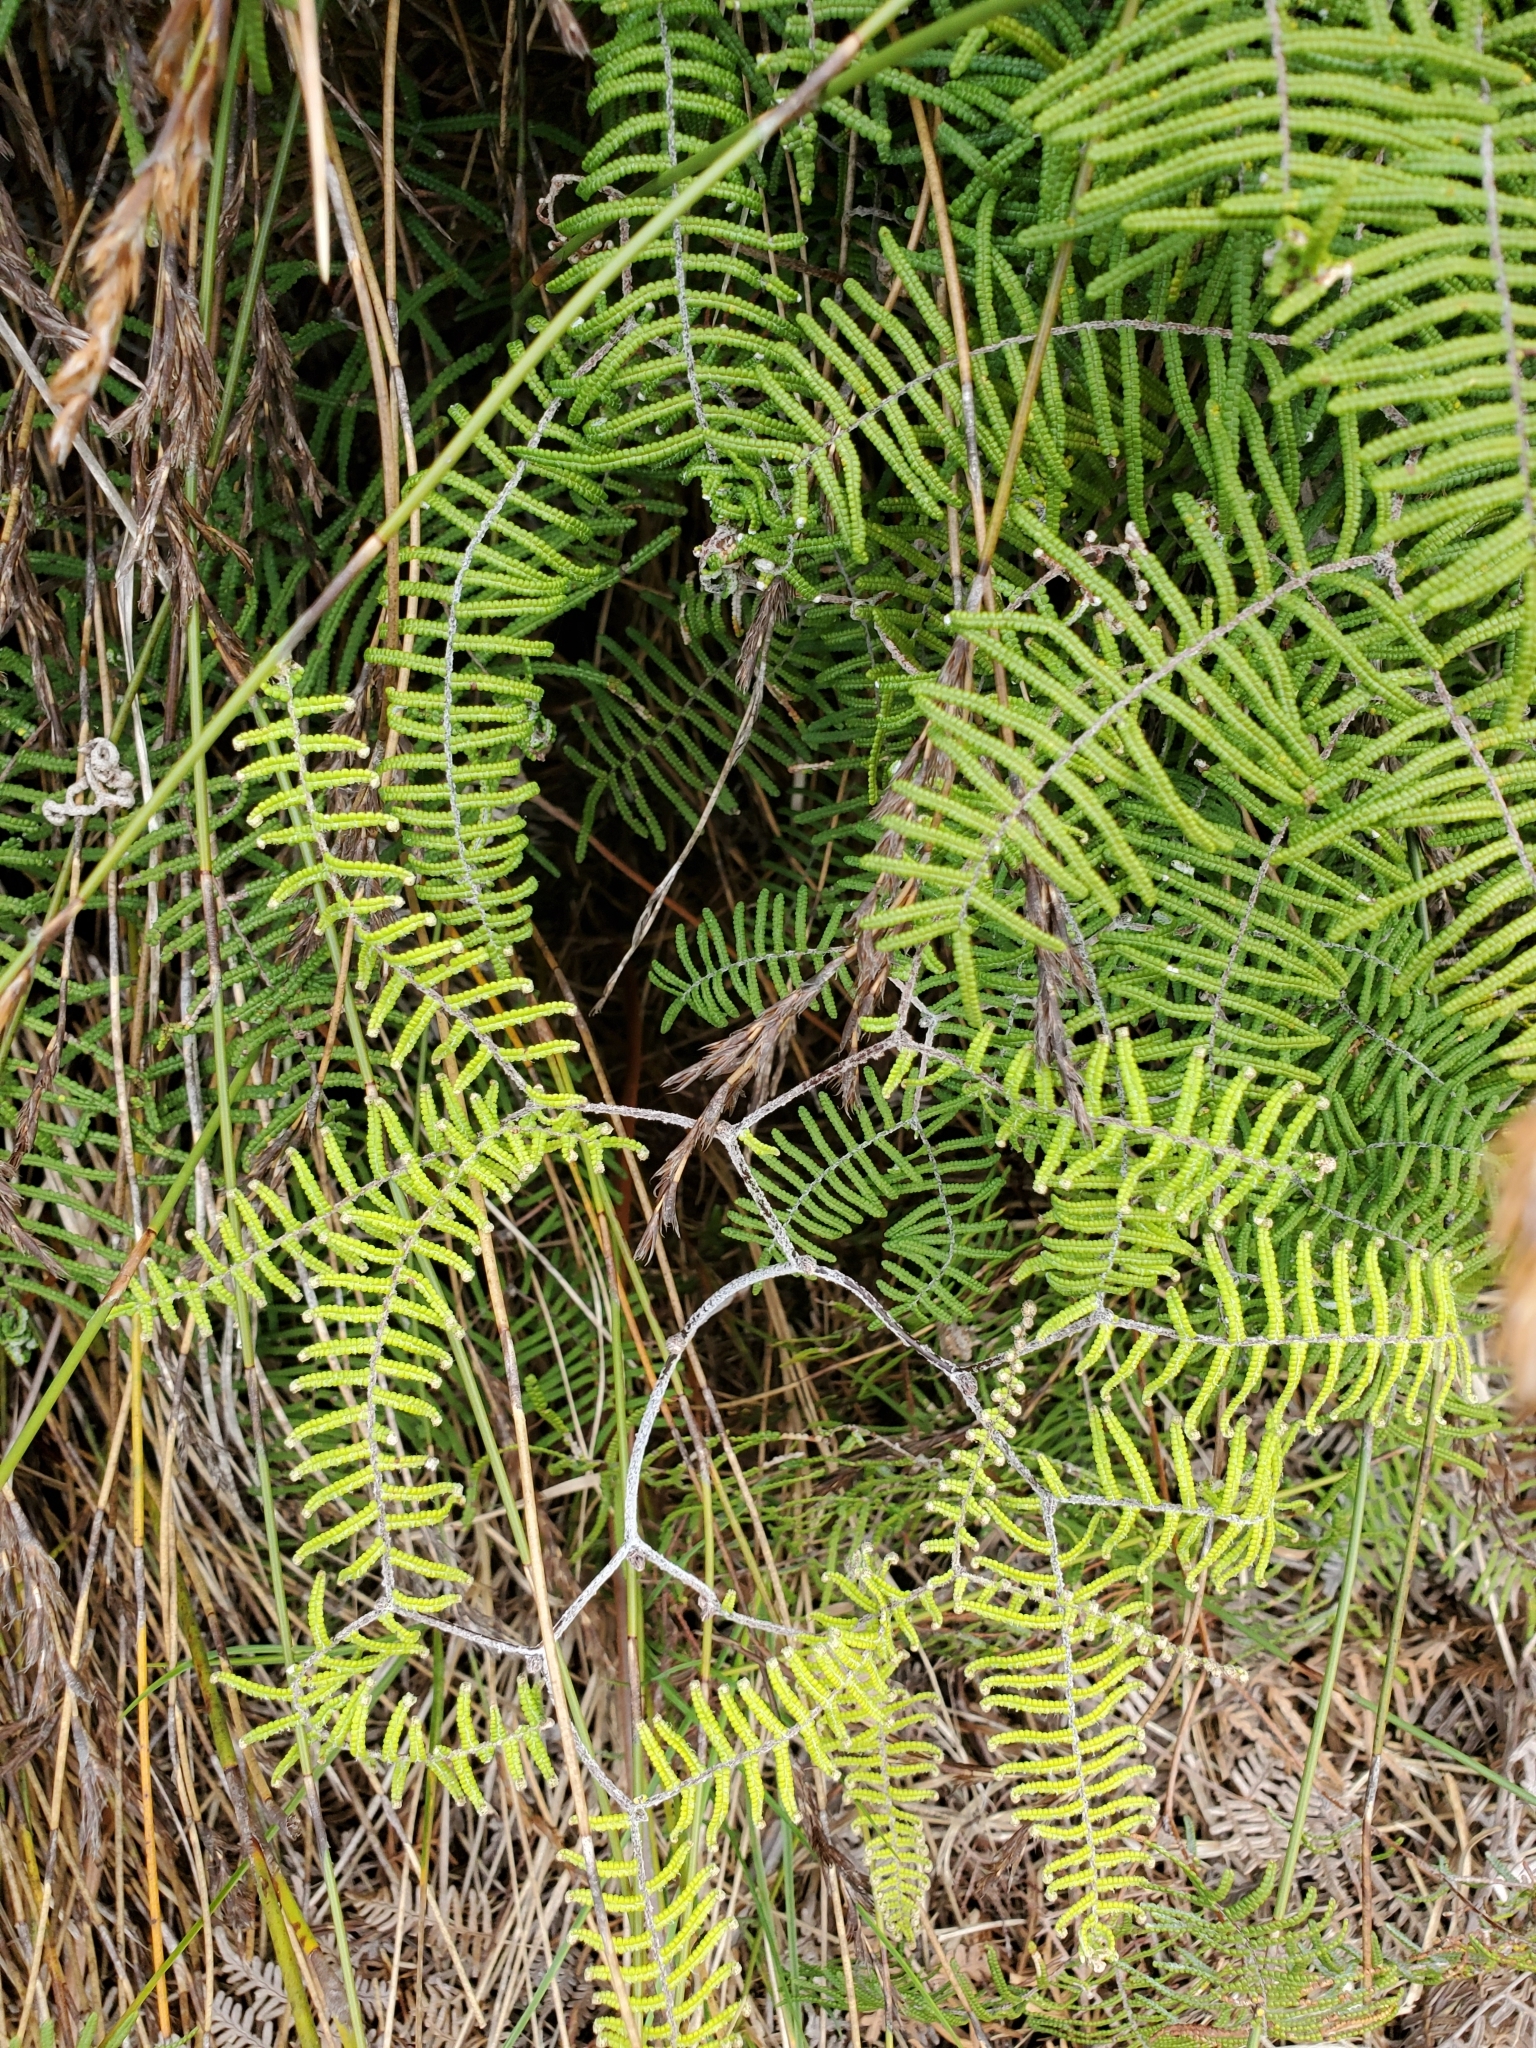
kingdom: Plantae
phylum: Tracheophyta
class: Polypodiopsida
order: Gleicheniales
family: Gleicheniaceae
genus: Gleichenia
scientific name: Gleichenia dicarpa
